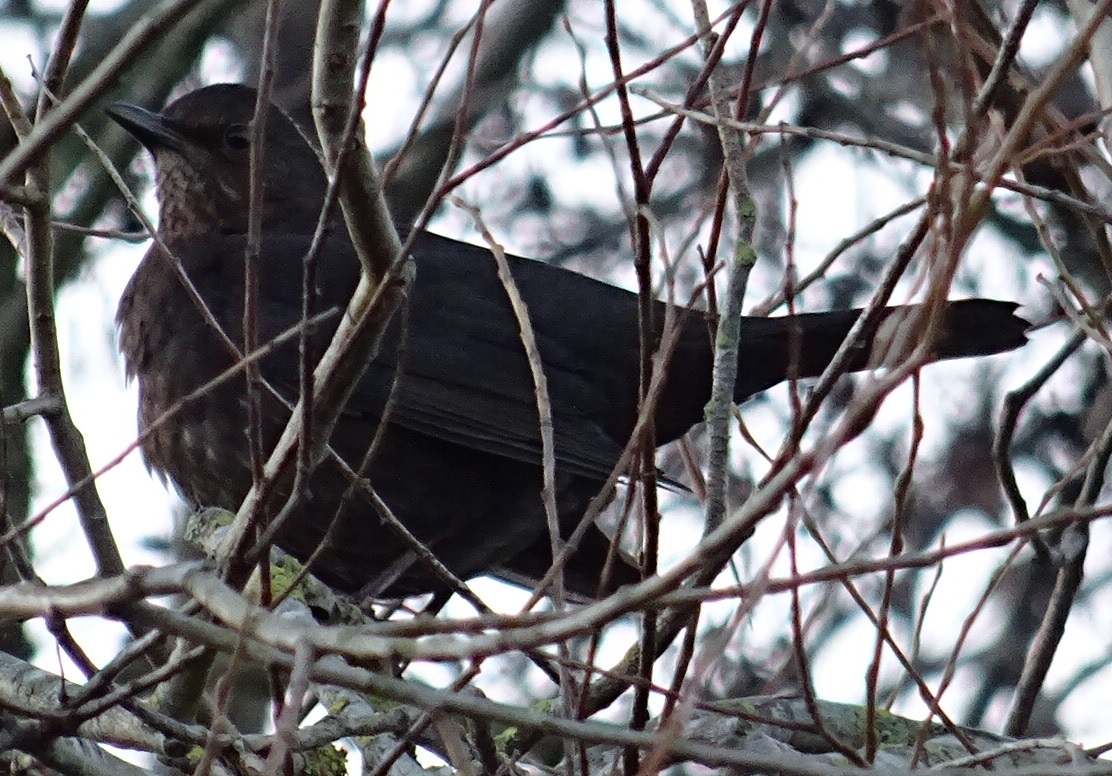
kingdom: Animalia
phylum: Chordata
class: Aves
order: Passeriformes
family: Turdidae
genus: Turdus
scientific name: Turdus merula
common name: Common blackbird
